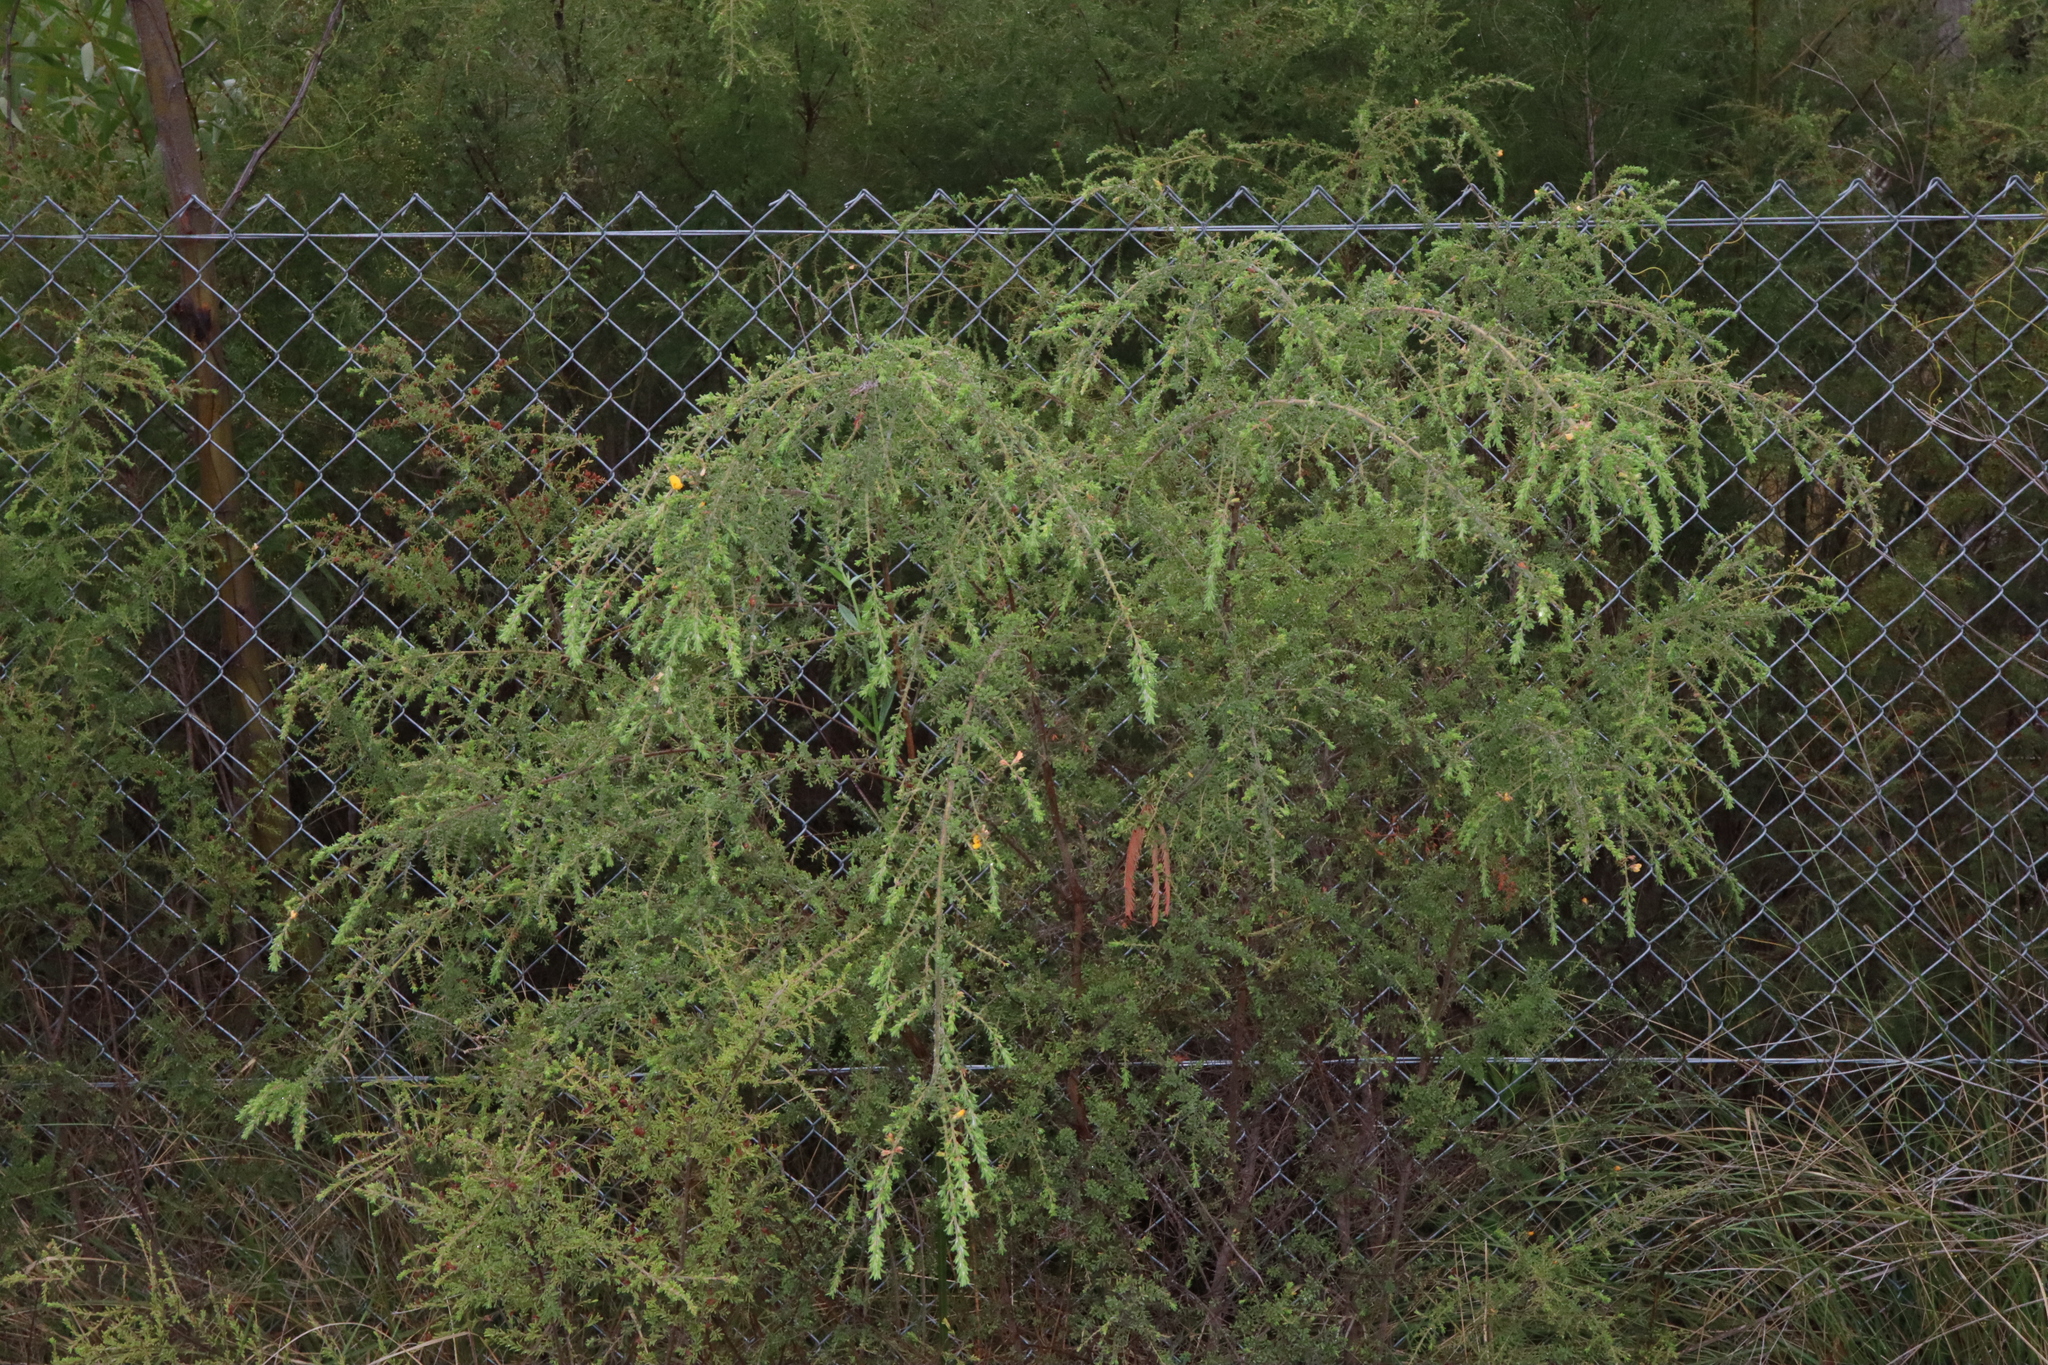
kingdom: Plantae
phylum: Tracheophyta
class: Magnoliopsida
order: Fabales
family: Fabaceae
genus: Pultenaea
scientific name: Pultenaea villosa
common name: Bronze bush-pea
